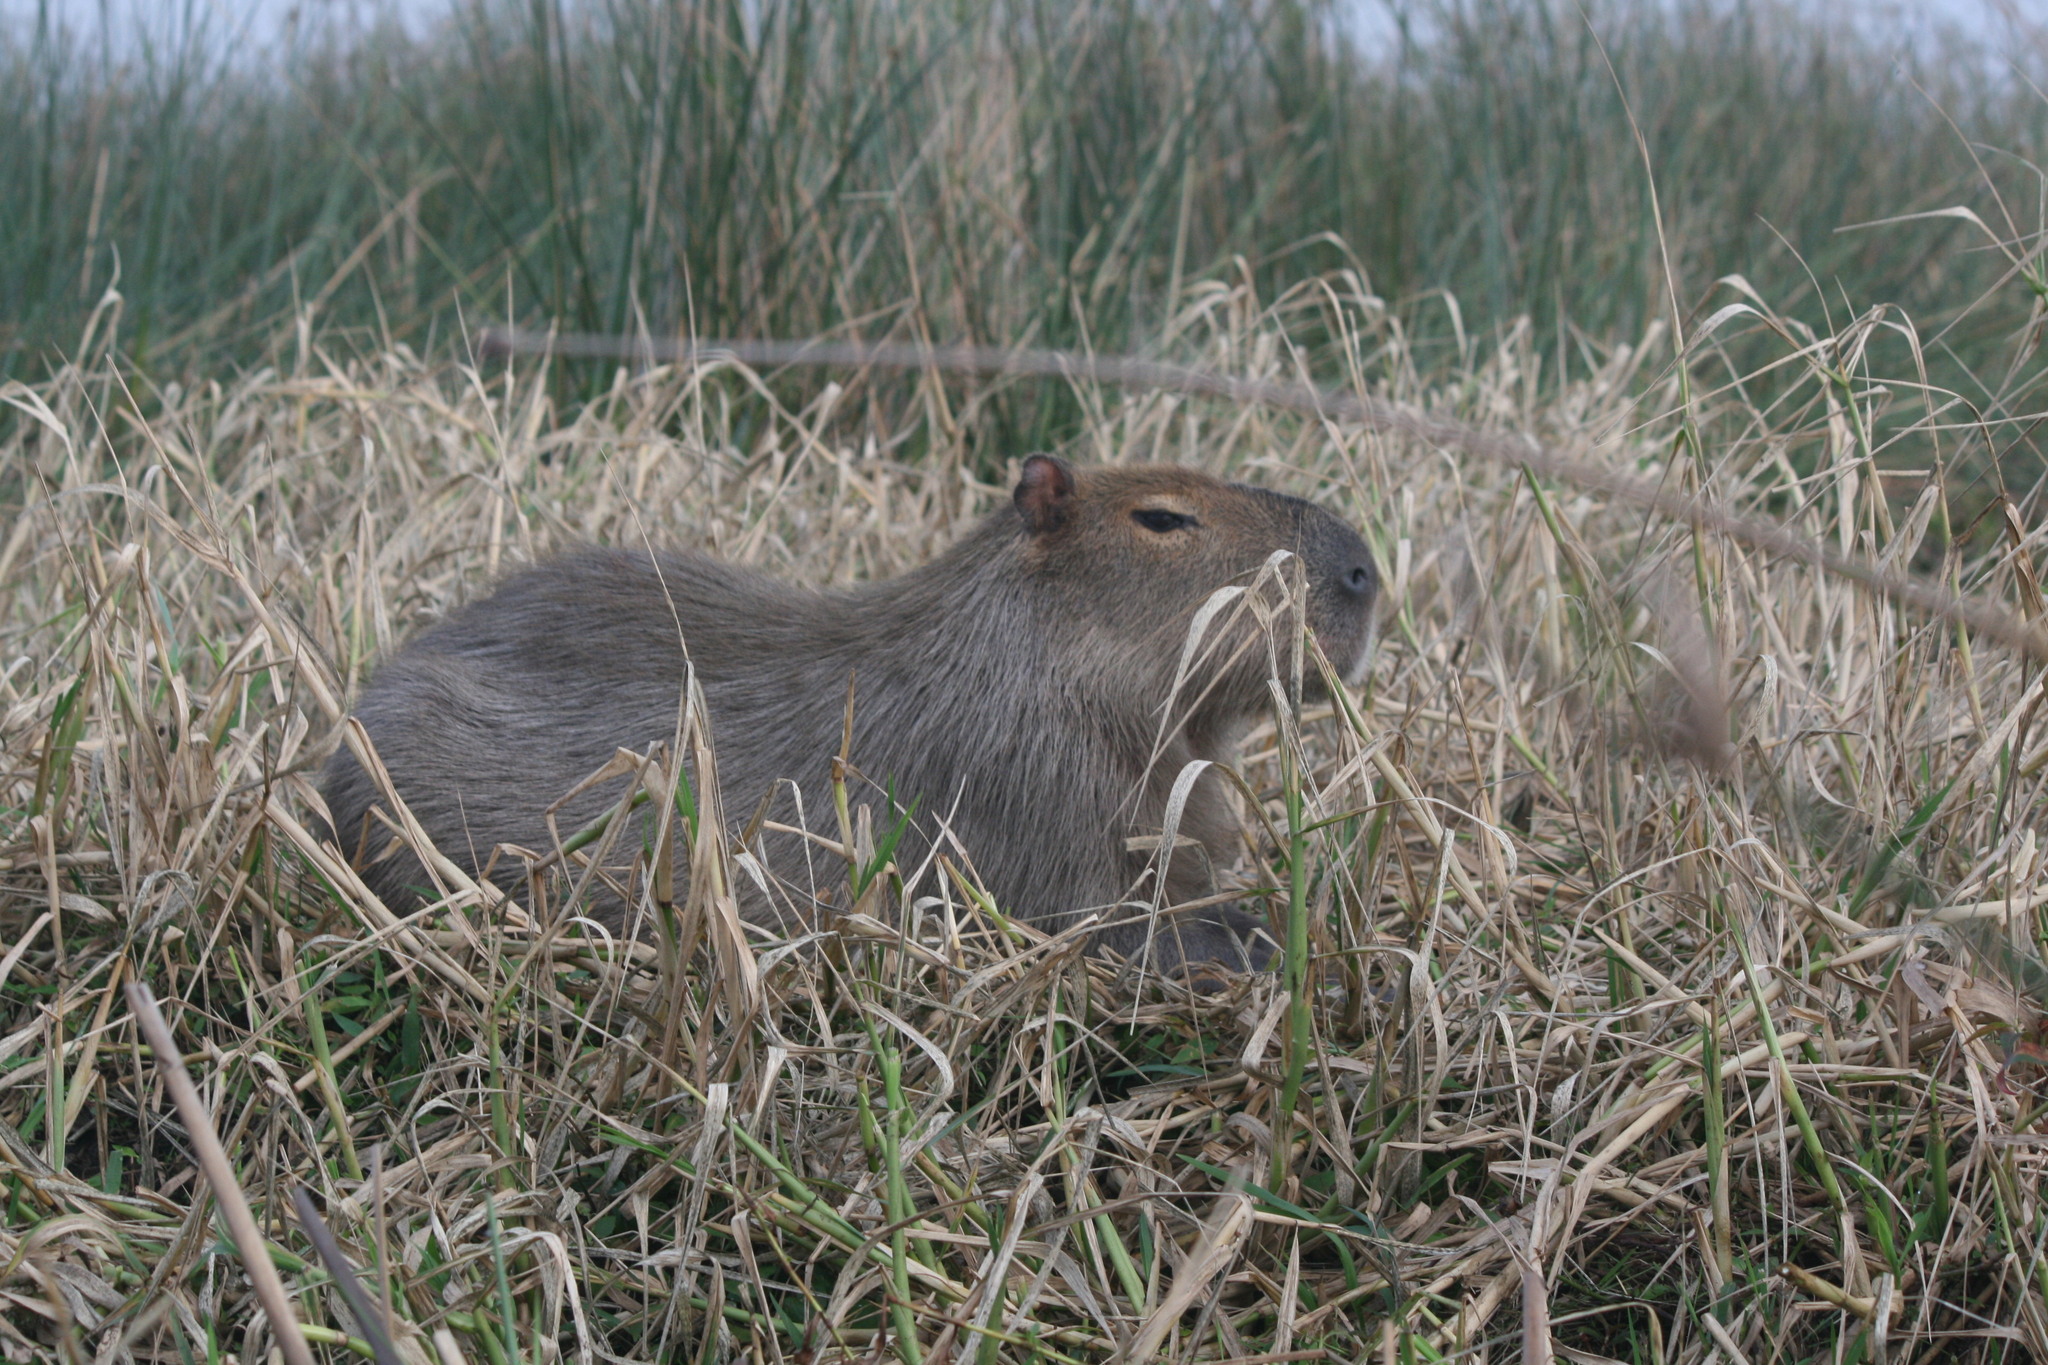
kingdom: Animalia
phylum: Chordata
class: Mammalia
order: Rodentia
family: Caviidae
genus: Hydrochoerus
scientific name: Hydrochoerus hydrochaeris
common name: Capybara
